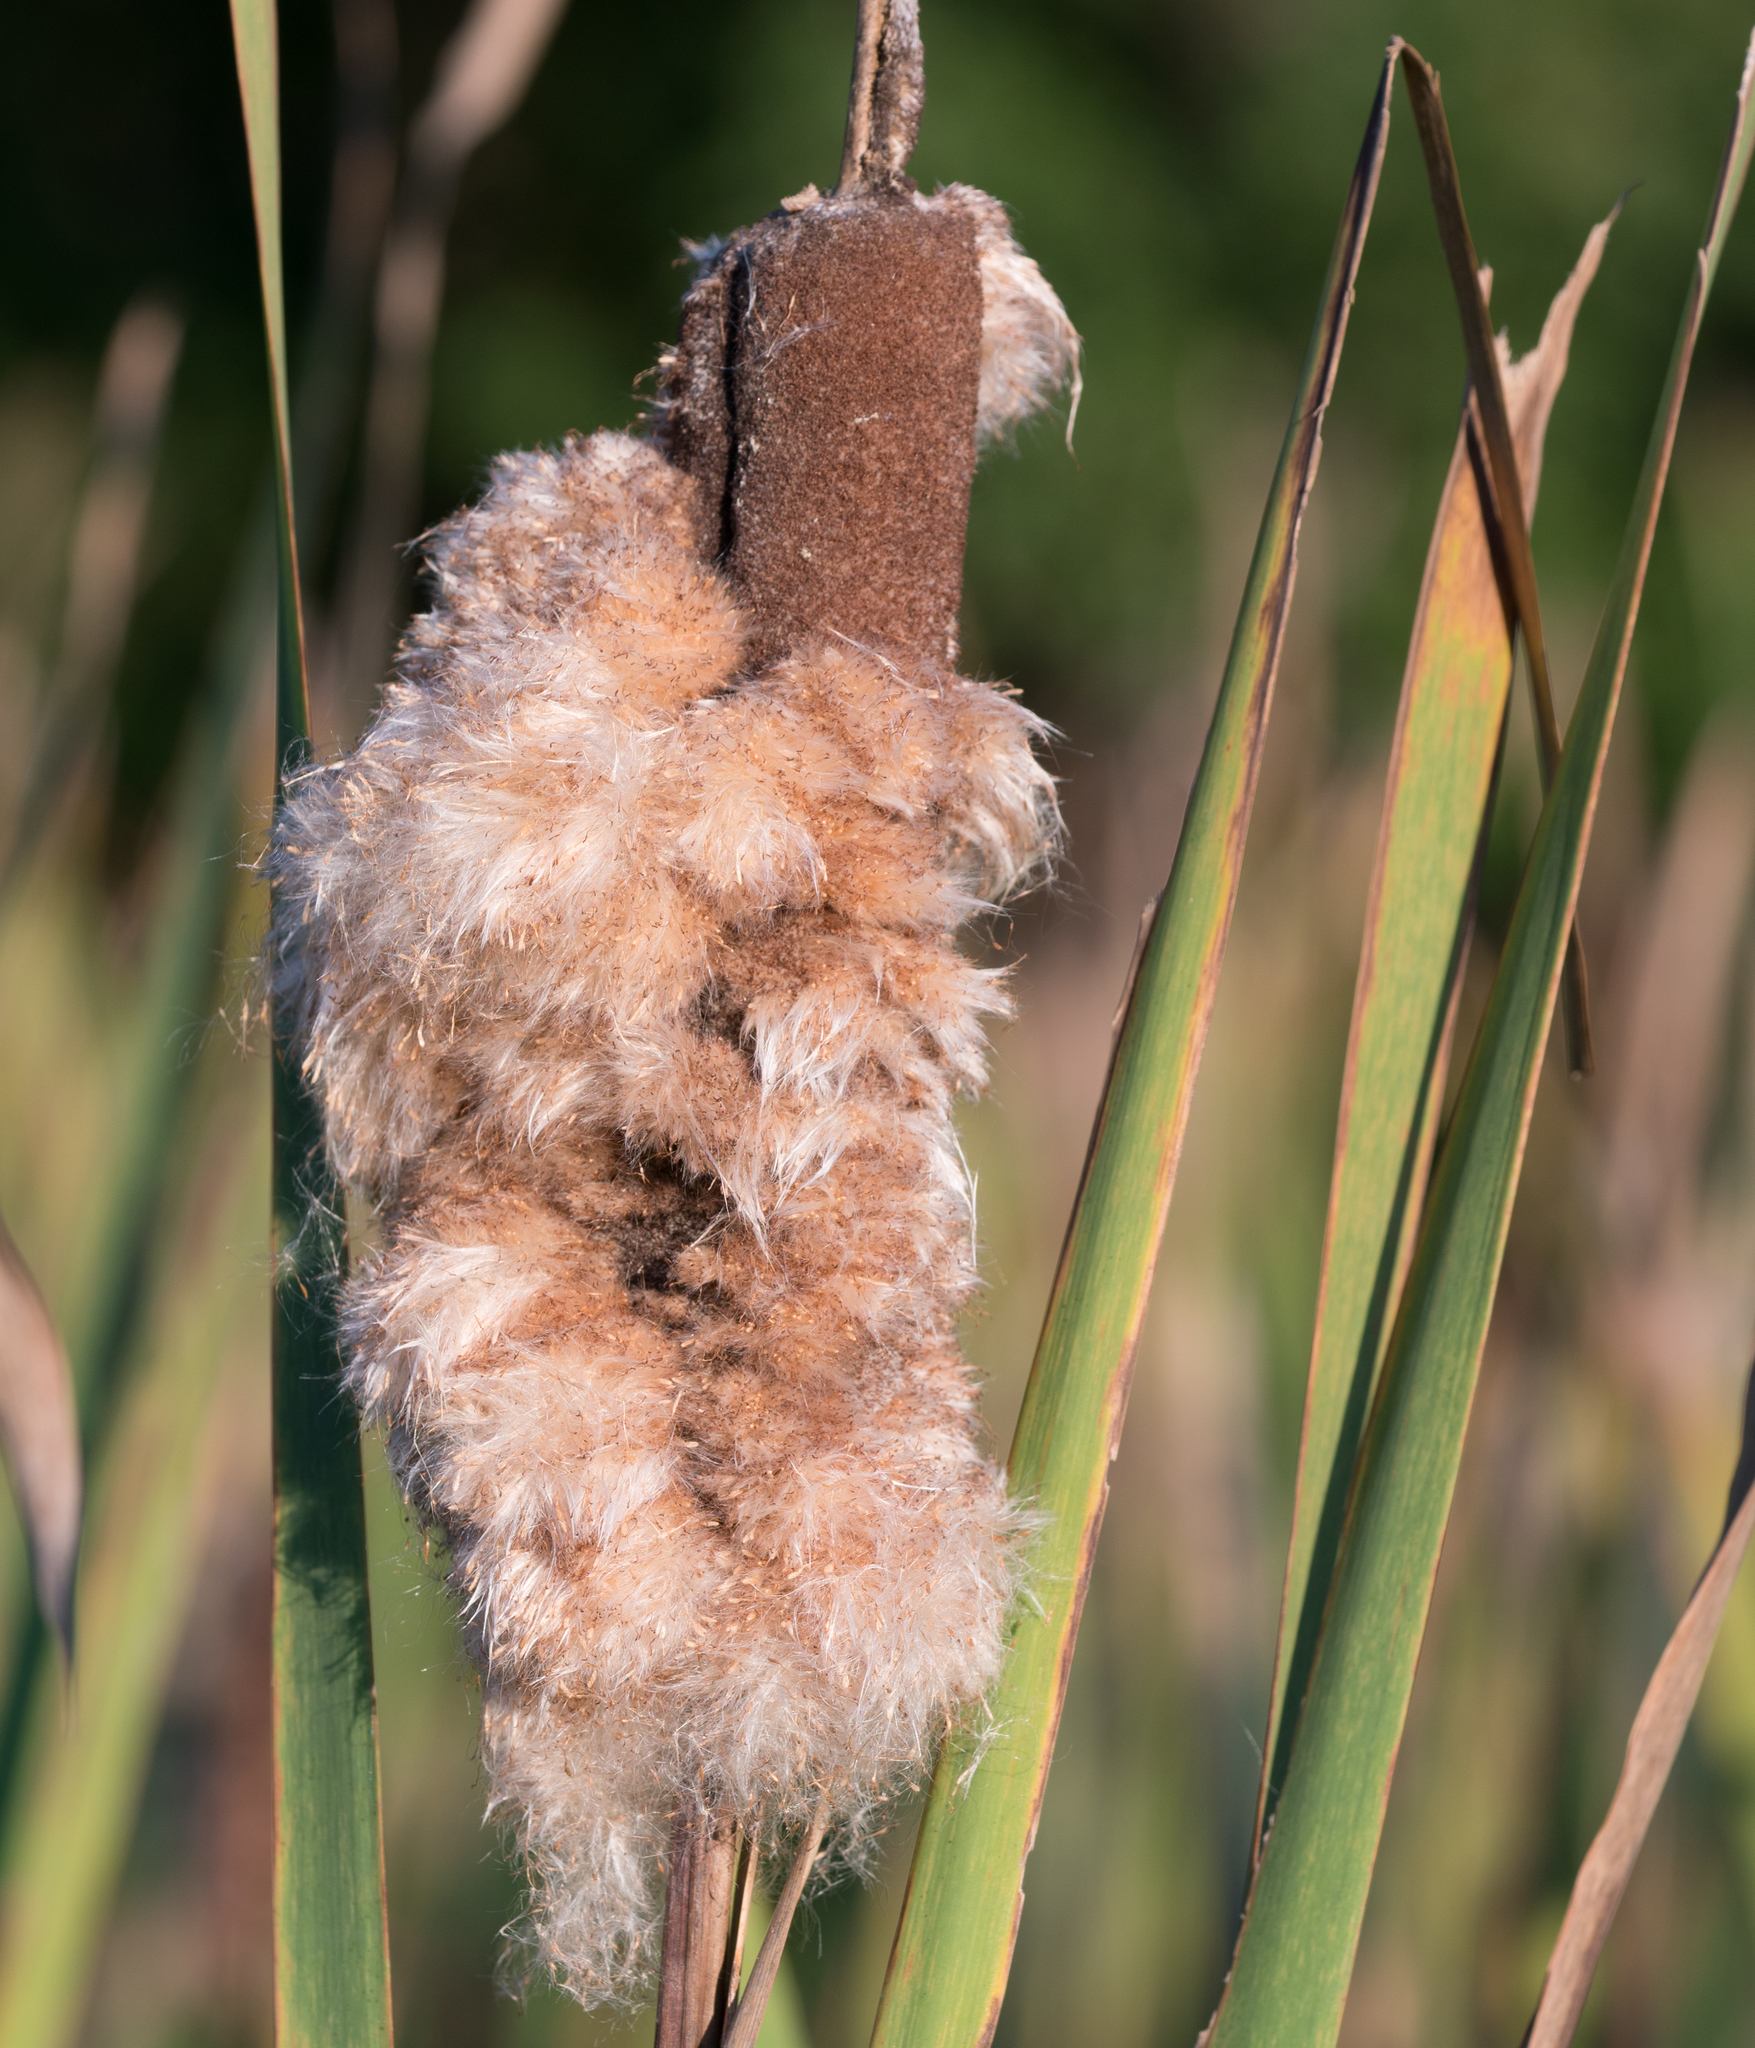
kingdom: Plantae
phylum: Tracheophyta
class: Liliopsida
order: Poales
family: Typhaceae
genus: Typha
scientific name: Typha
